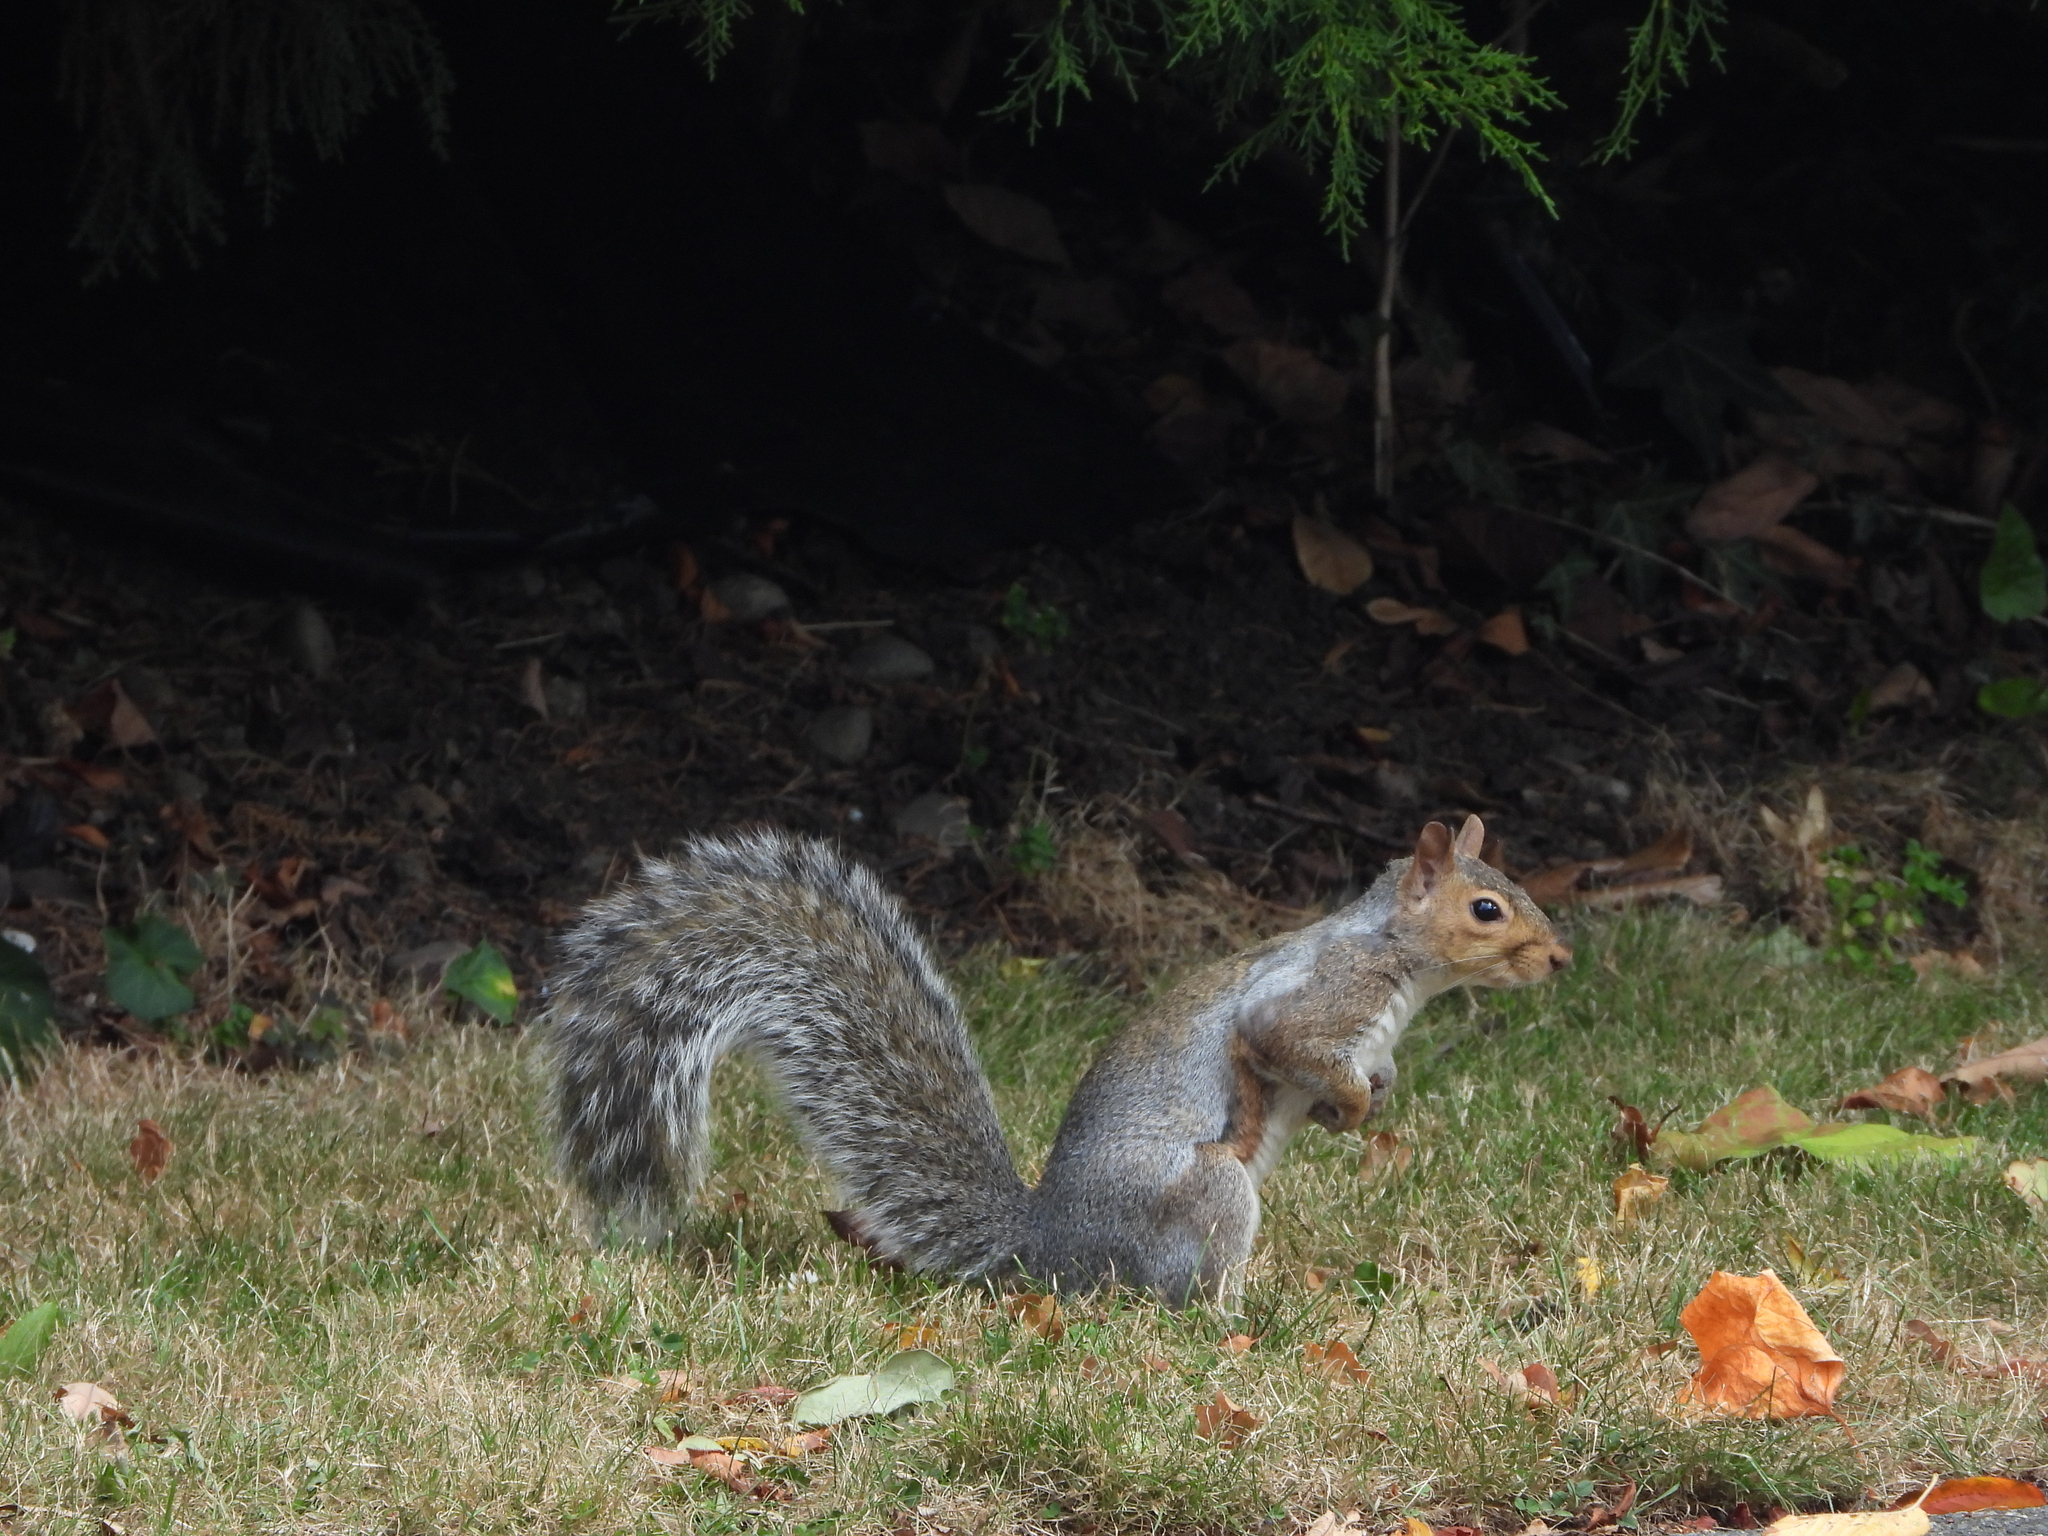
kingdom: Animalia
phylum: Chordata
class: Mammalia
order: Rodentia
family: Sciuridae
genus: Sciurus
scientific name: Sciurus carolinensis
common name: Eastern gray squirrel
